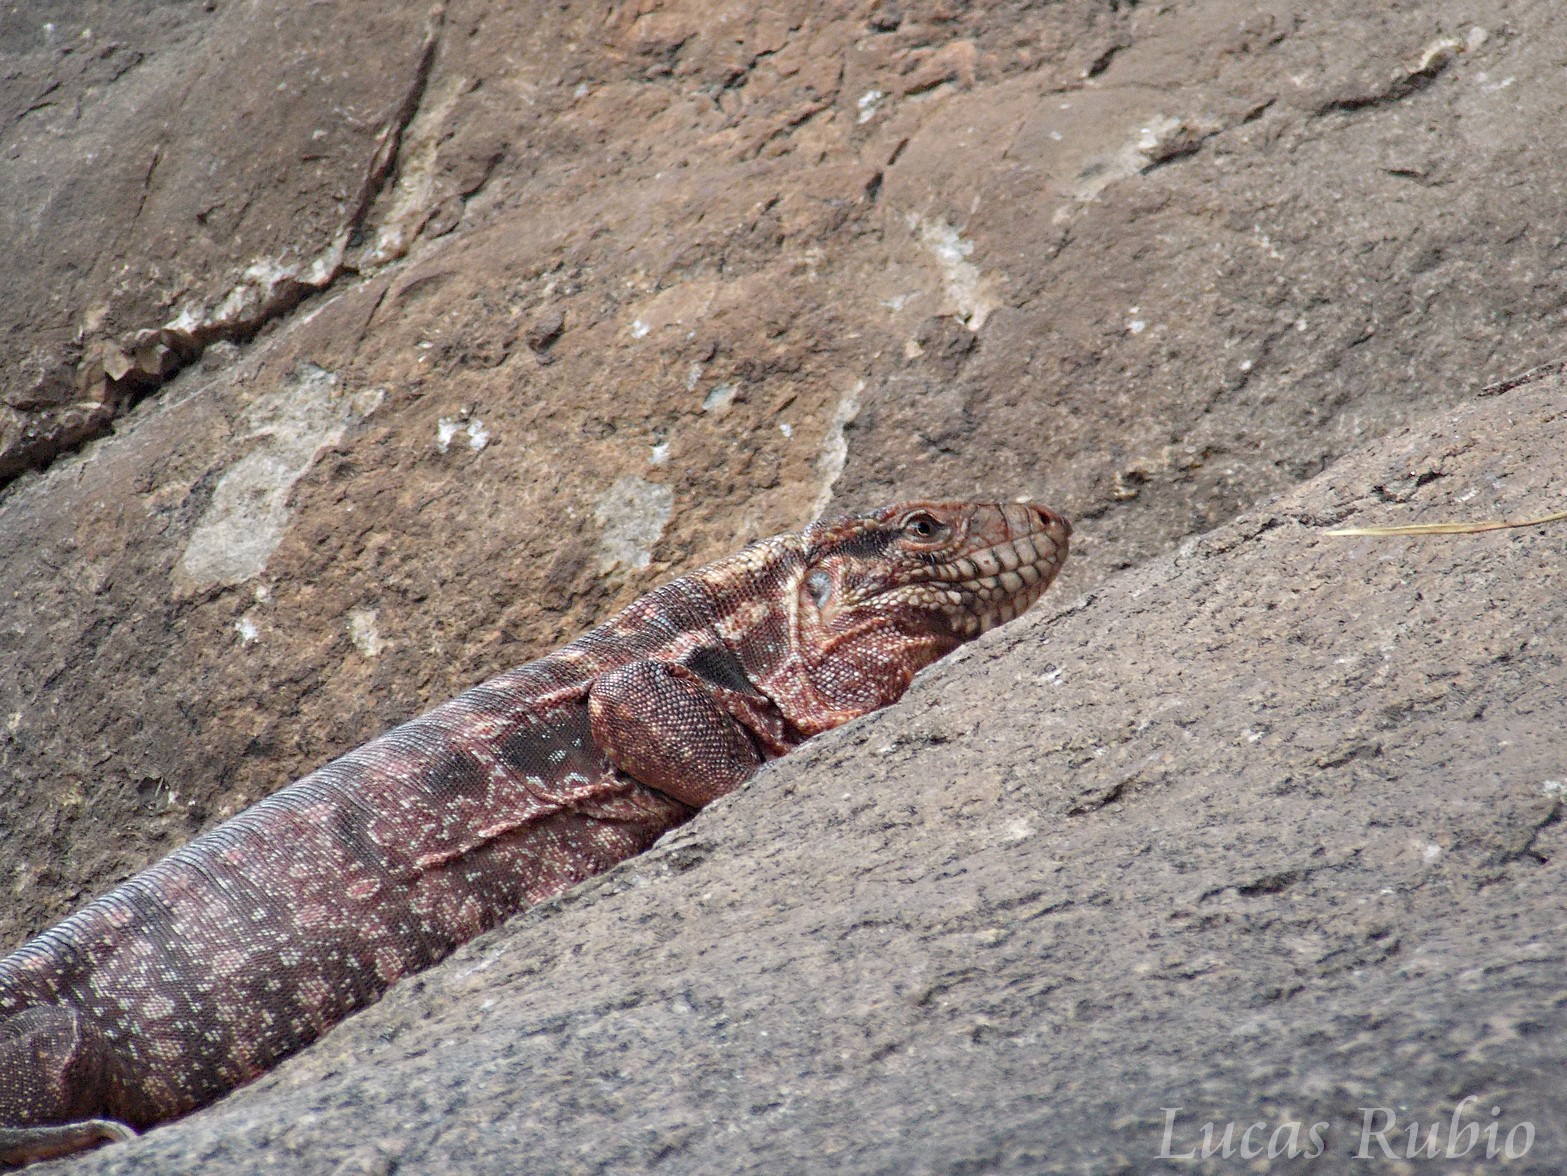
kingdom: Animalia
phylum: Chordata
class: Squamata
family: Teiidae
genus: Salvator
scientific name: Salvator rufescens
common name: Red tegu
